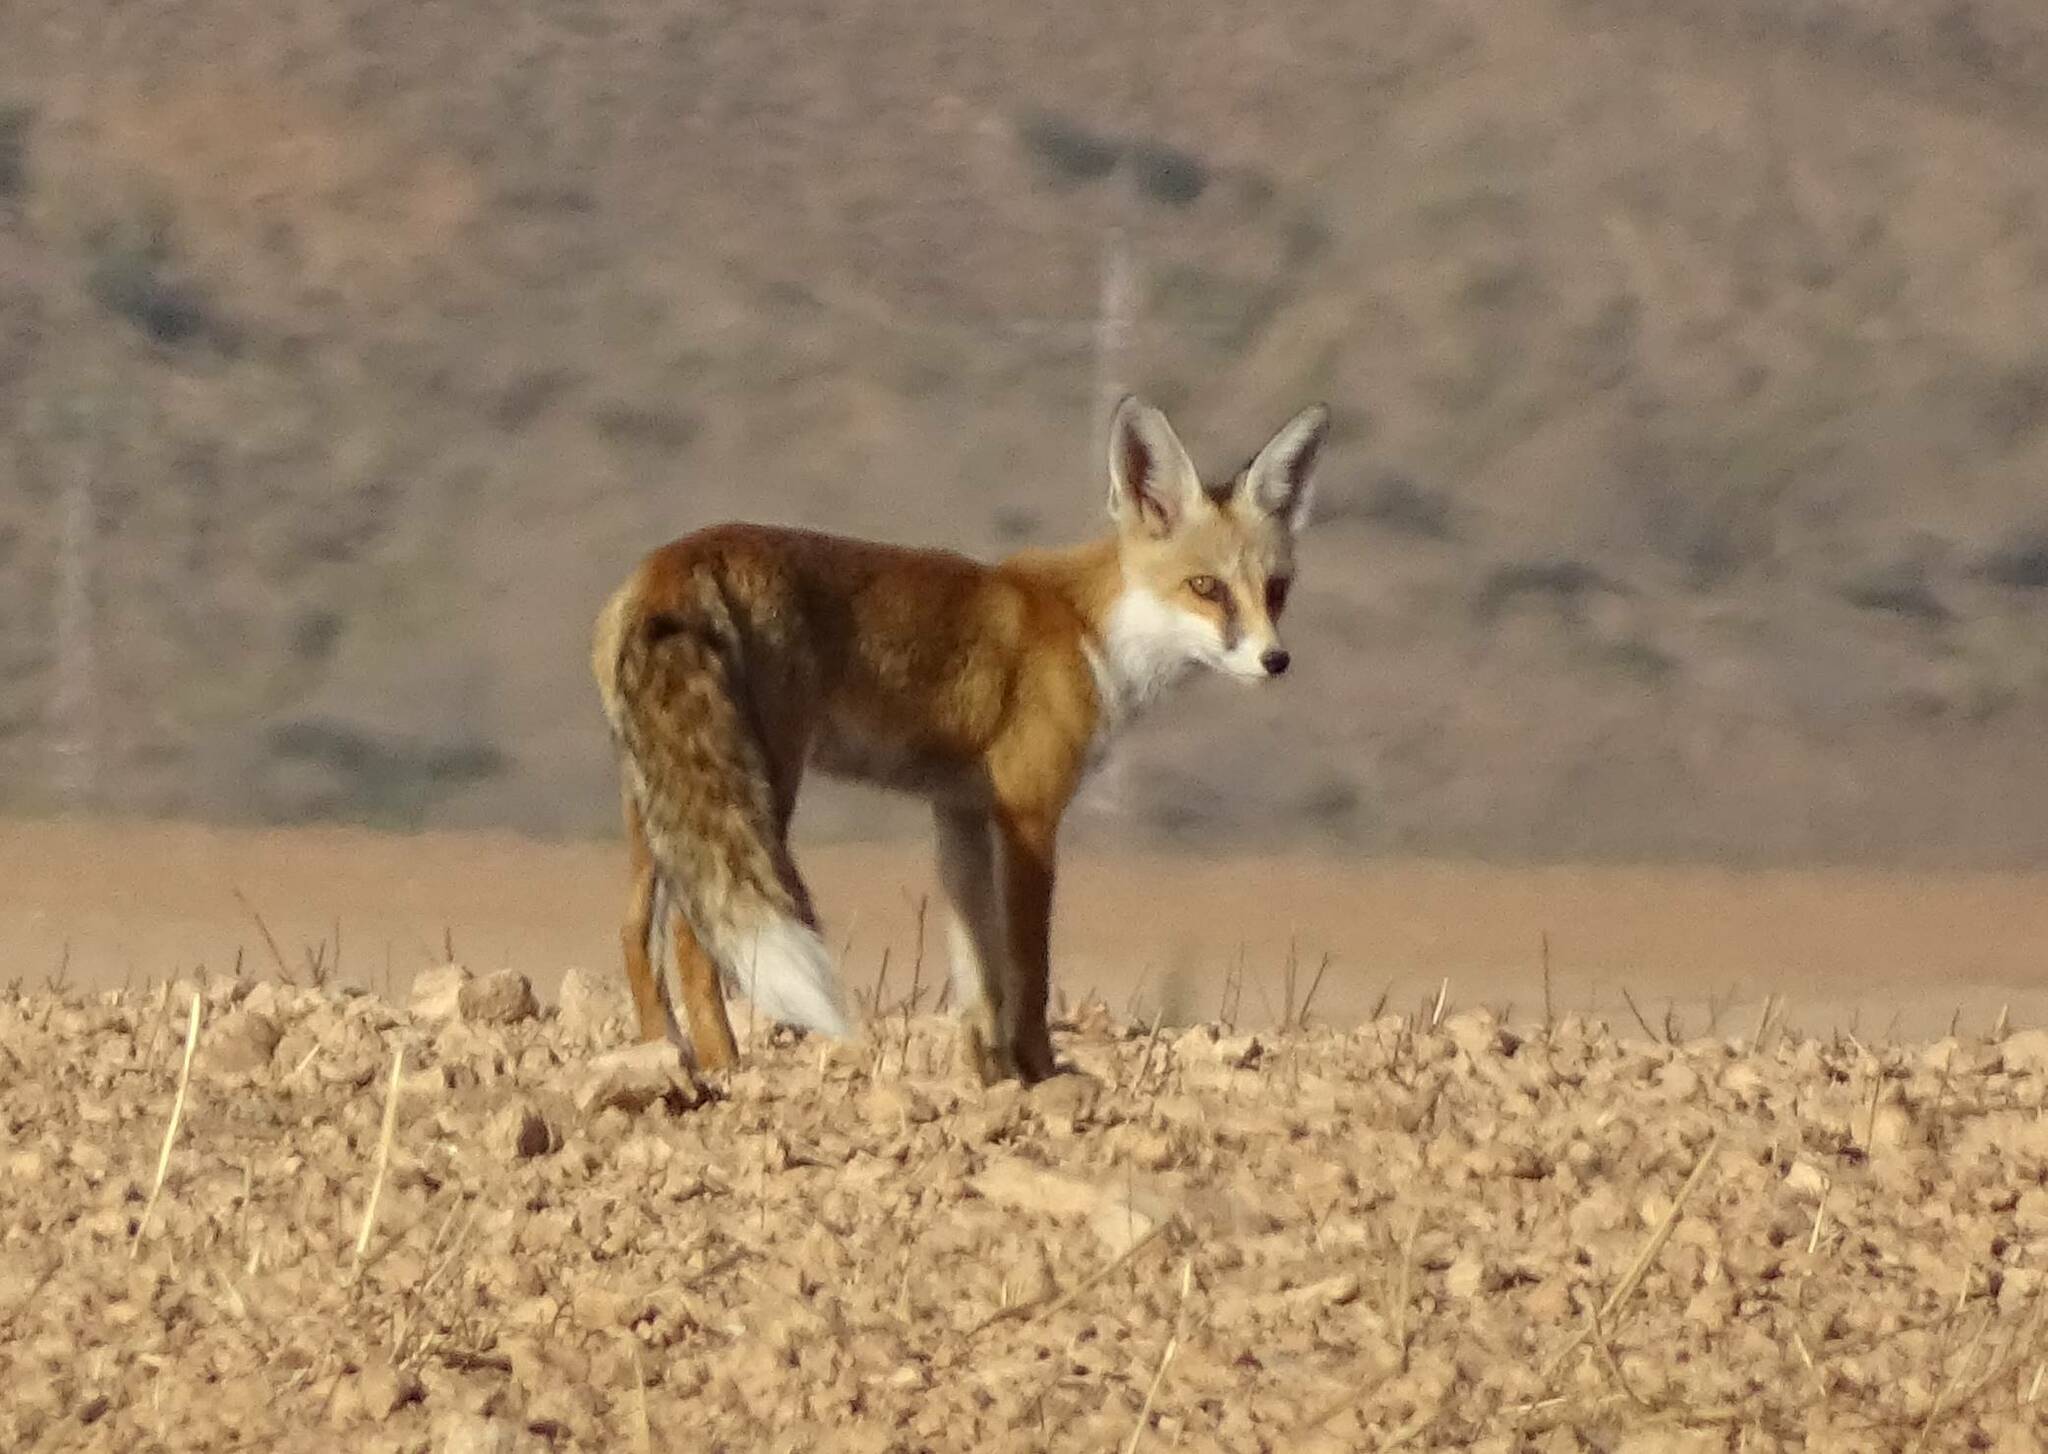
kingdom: Animalia
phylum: Chordata
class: Mammalia
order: Carnivora
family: Canidae
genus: Vulpes
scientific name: Vulpes vulpes
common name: Red fox
